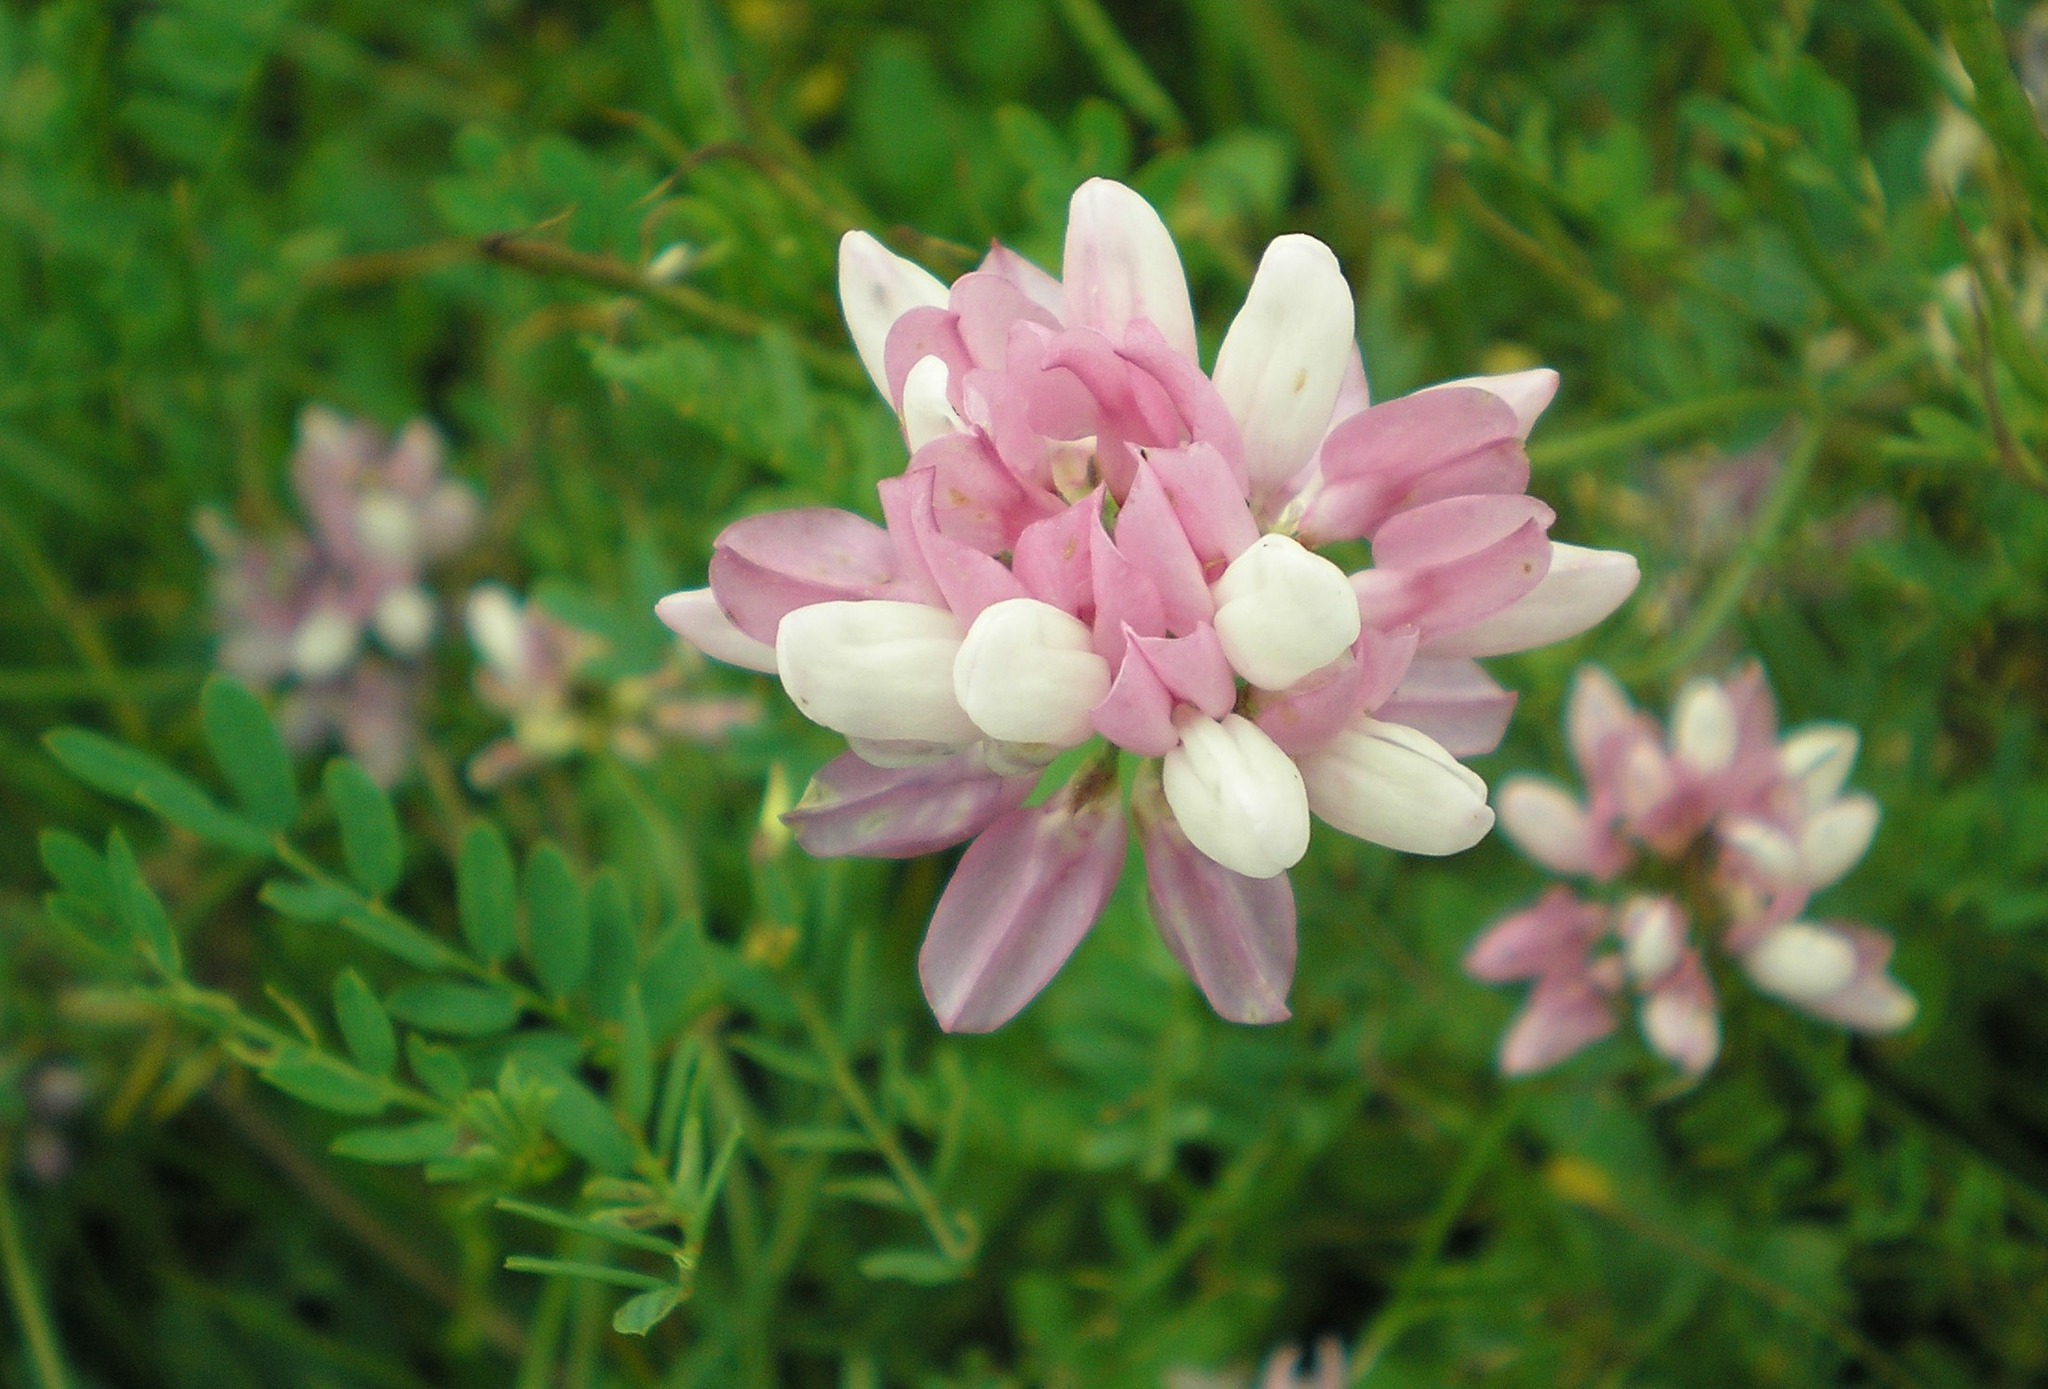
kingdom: Plantae
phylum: Tracheophyta
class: Magnoliopsida
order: Fabales
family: Fabaceae
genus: Coronilla
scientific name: Coronilla varia
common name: Crownvetch
